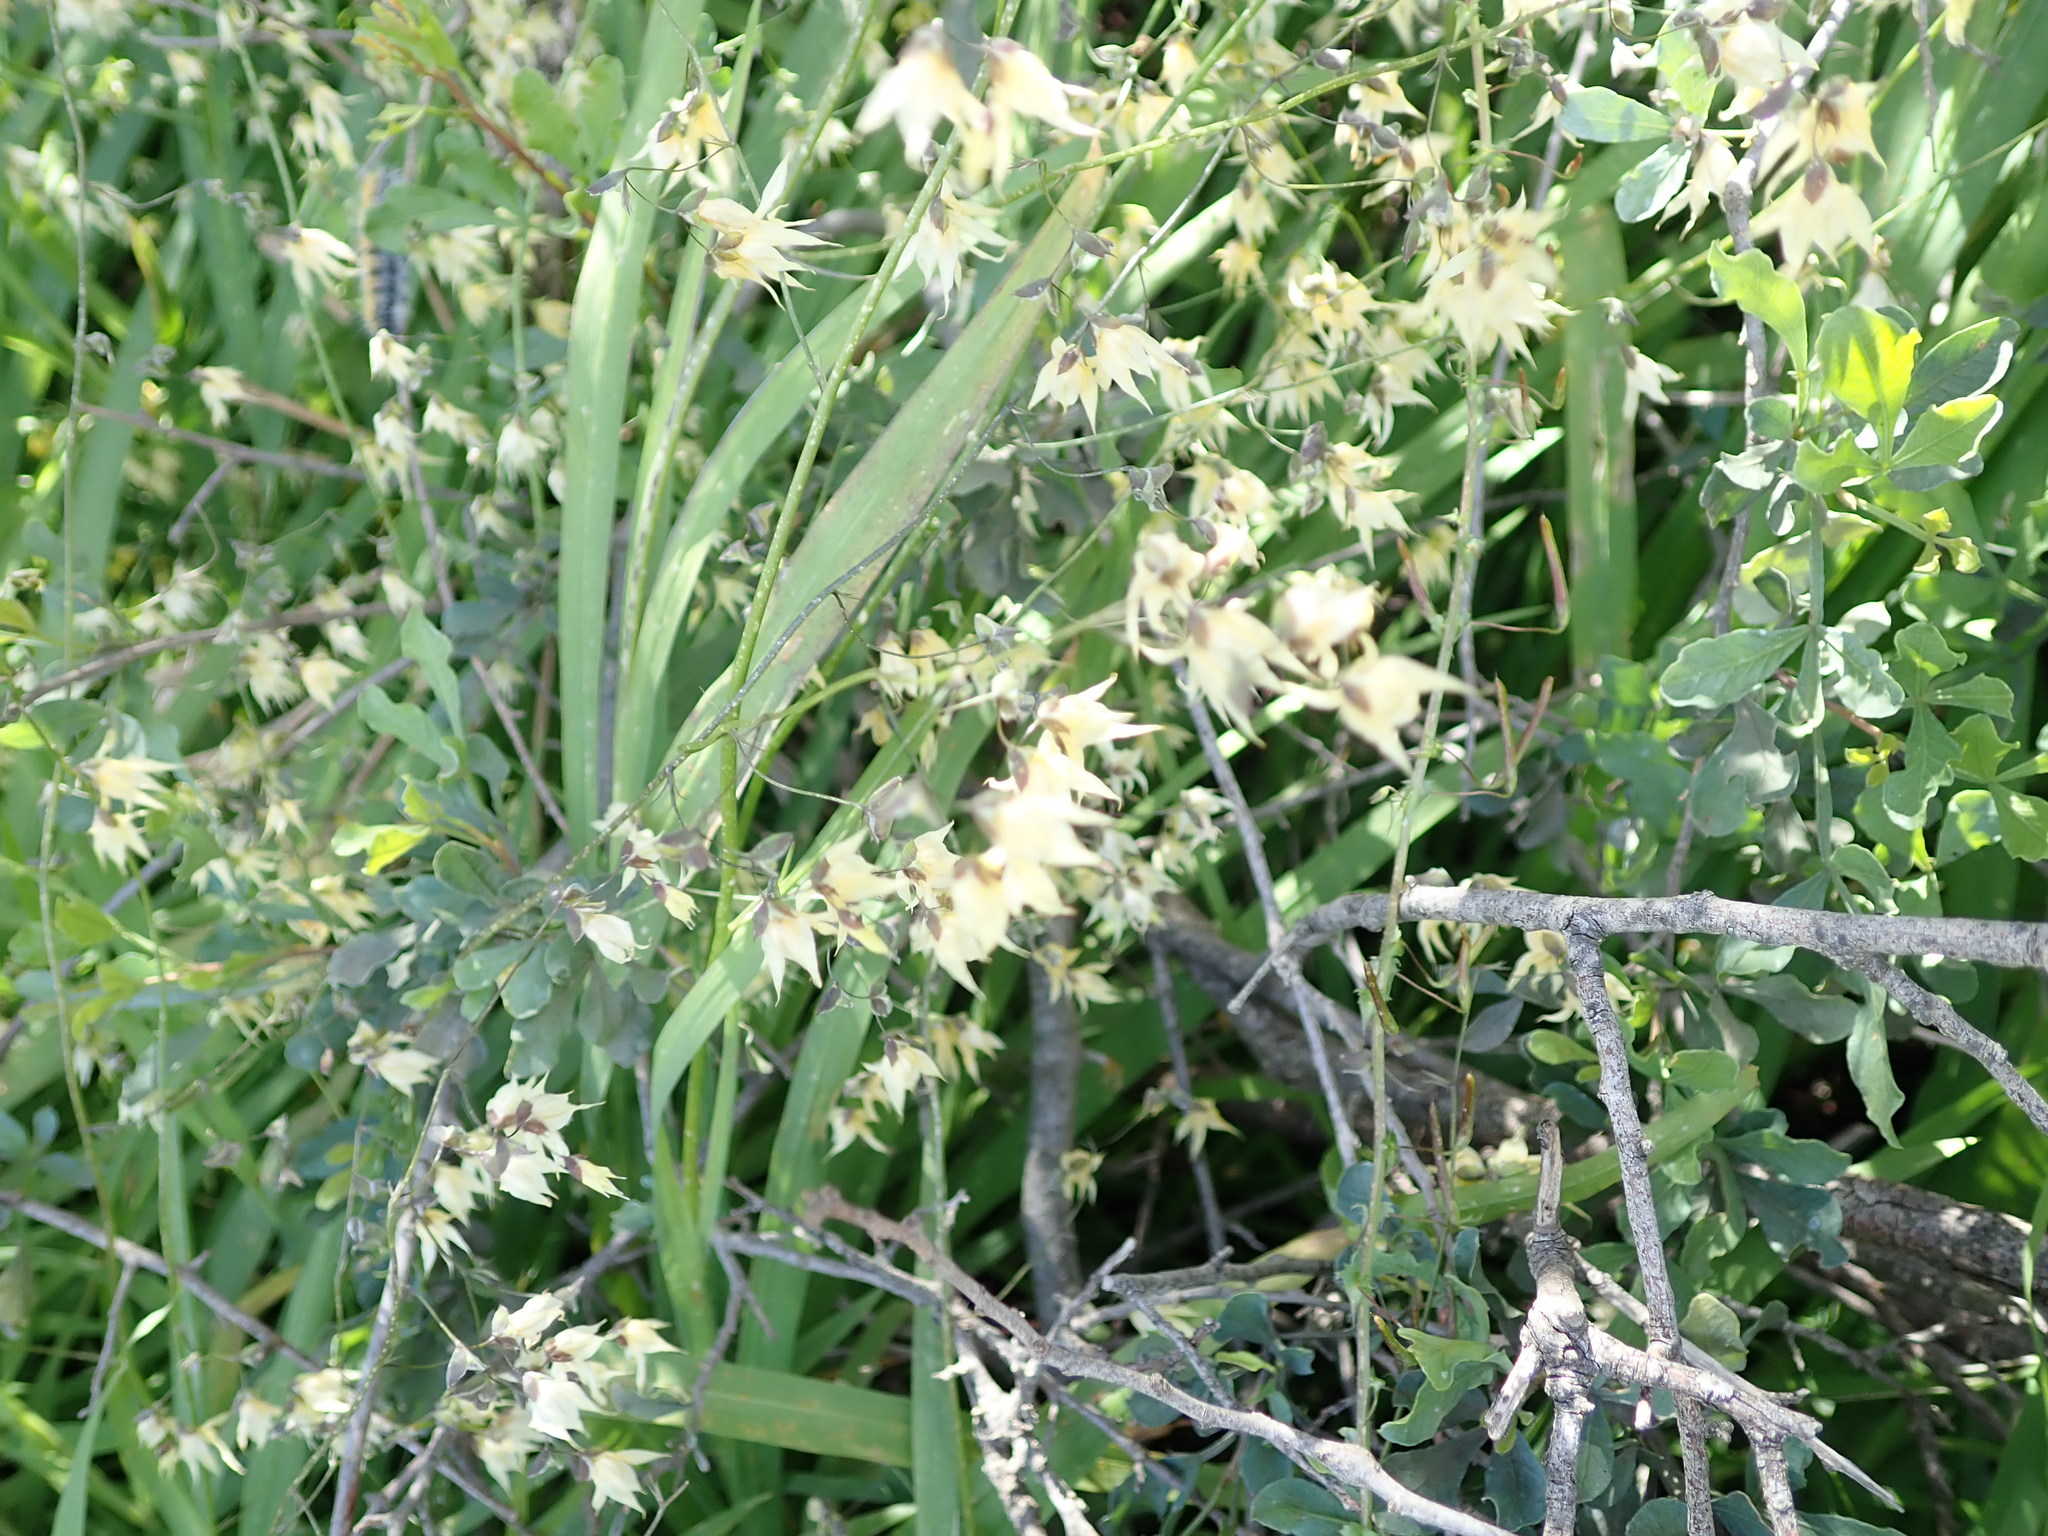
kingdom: Plantae
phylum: Tracheophyta
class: Liliopsida
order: Asparagales
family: Iridaceae
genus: Melasphaerula
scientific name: Melasphaerula graminea
